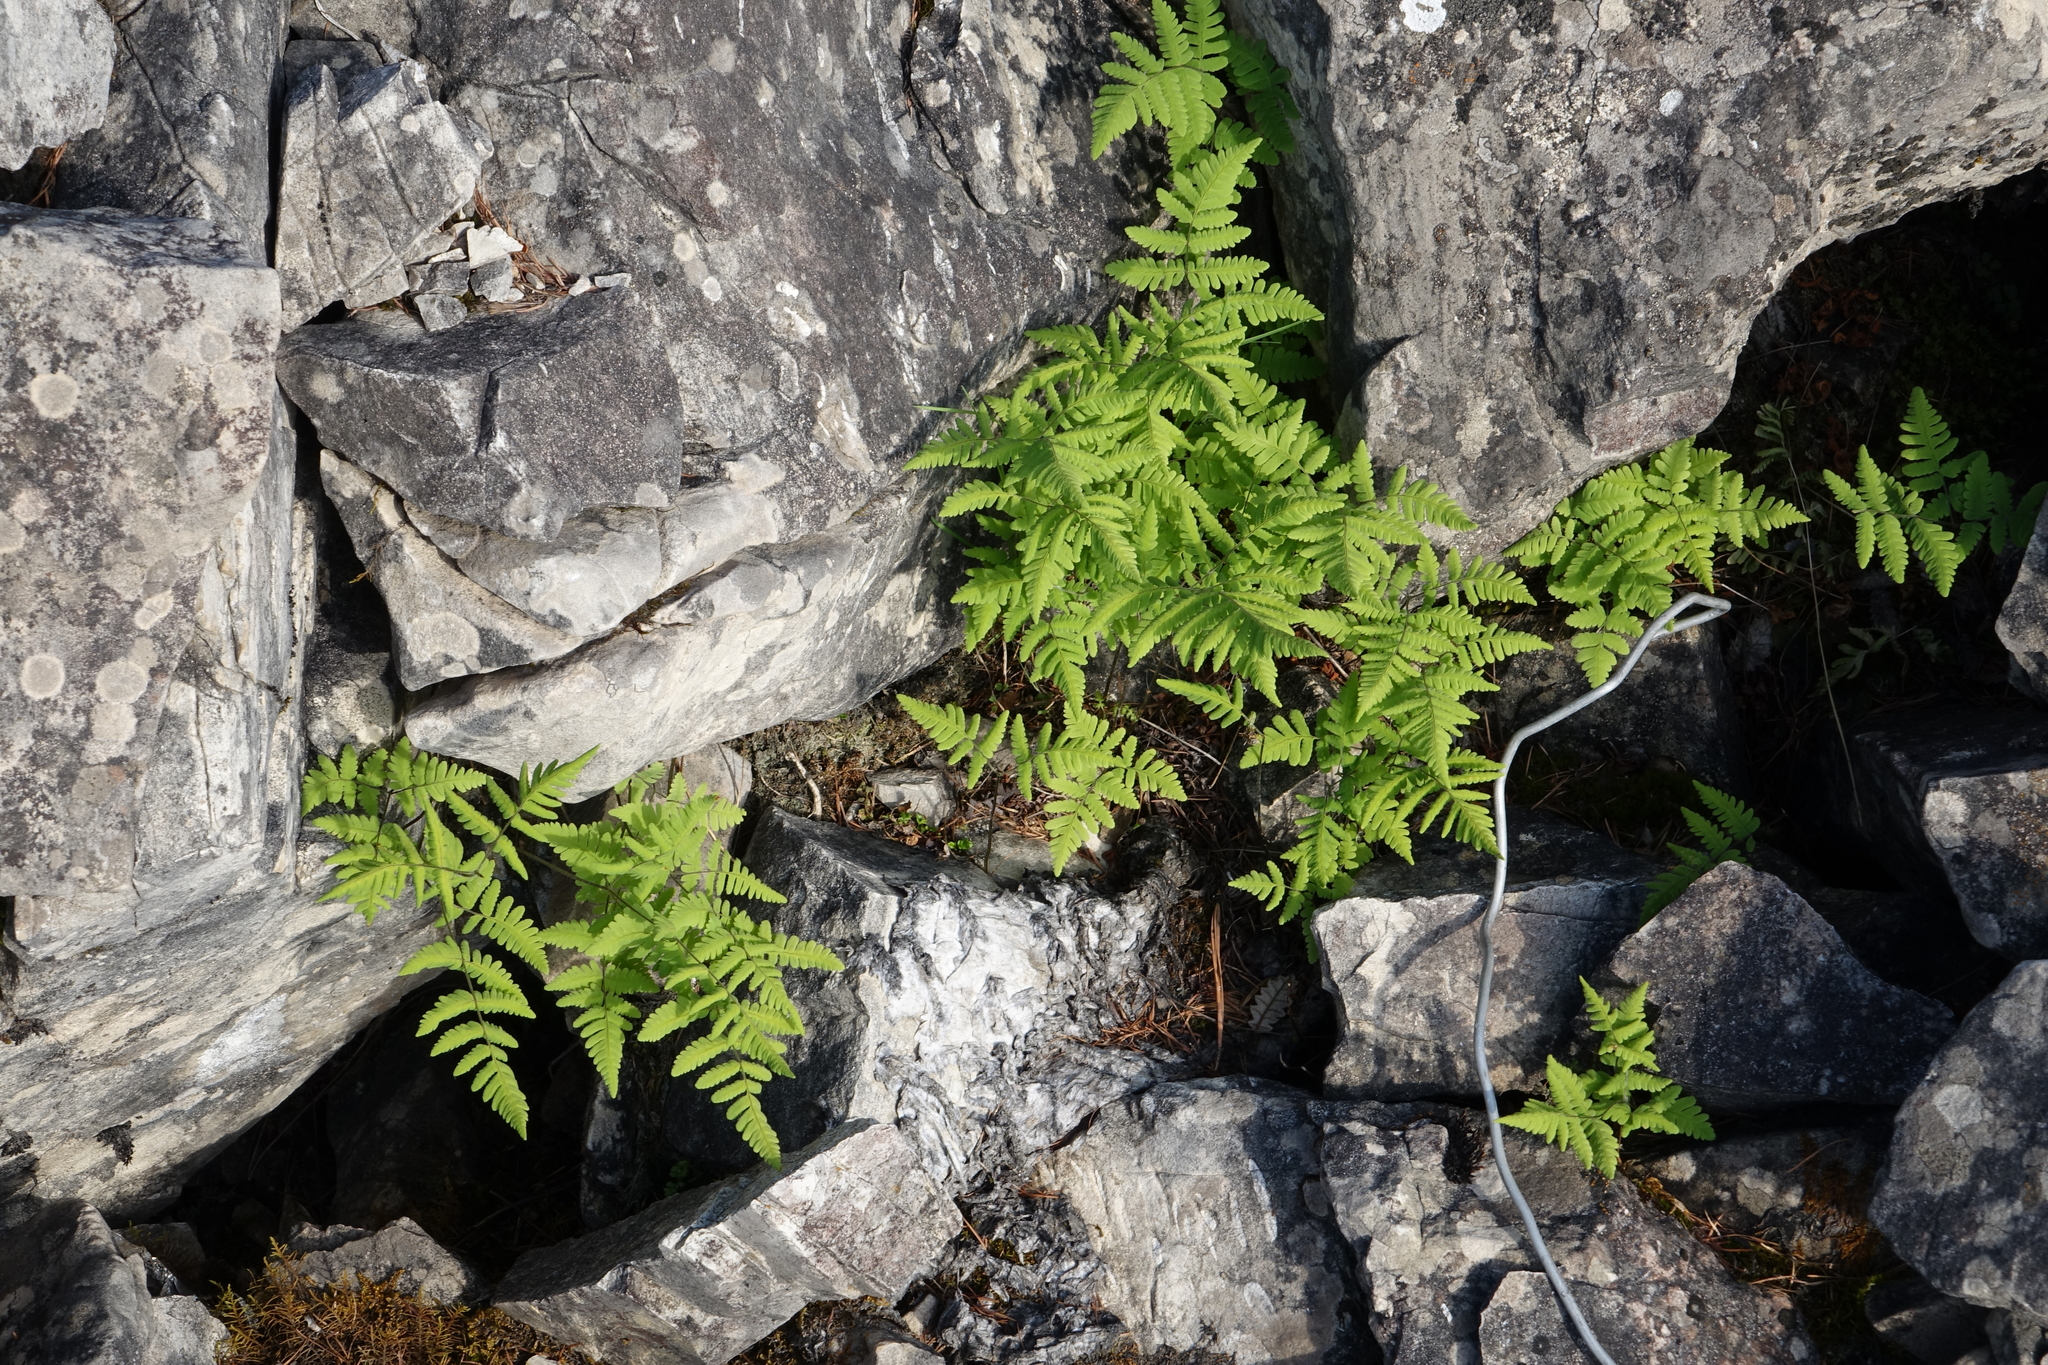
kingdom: Plantae
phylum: Tracheophyta
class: Polypodiopsida
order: Polypodiales
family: Cystopteridaceae
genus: Gymnocarpium
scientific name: Gymnocarpium jessoense
